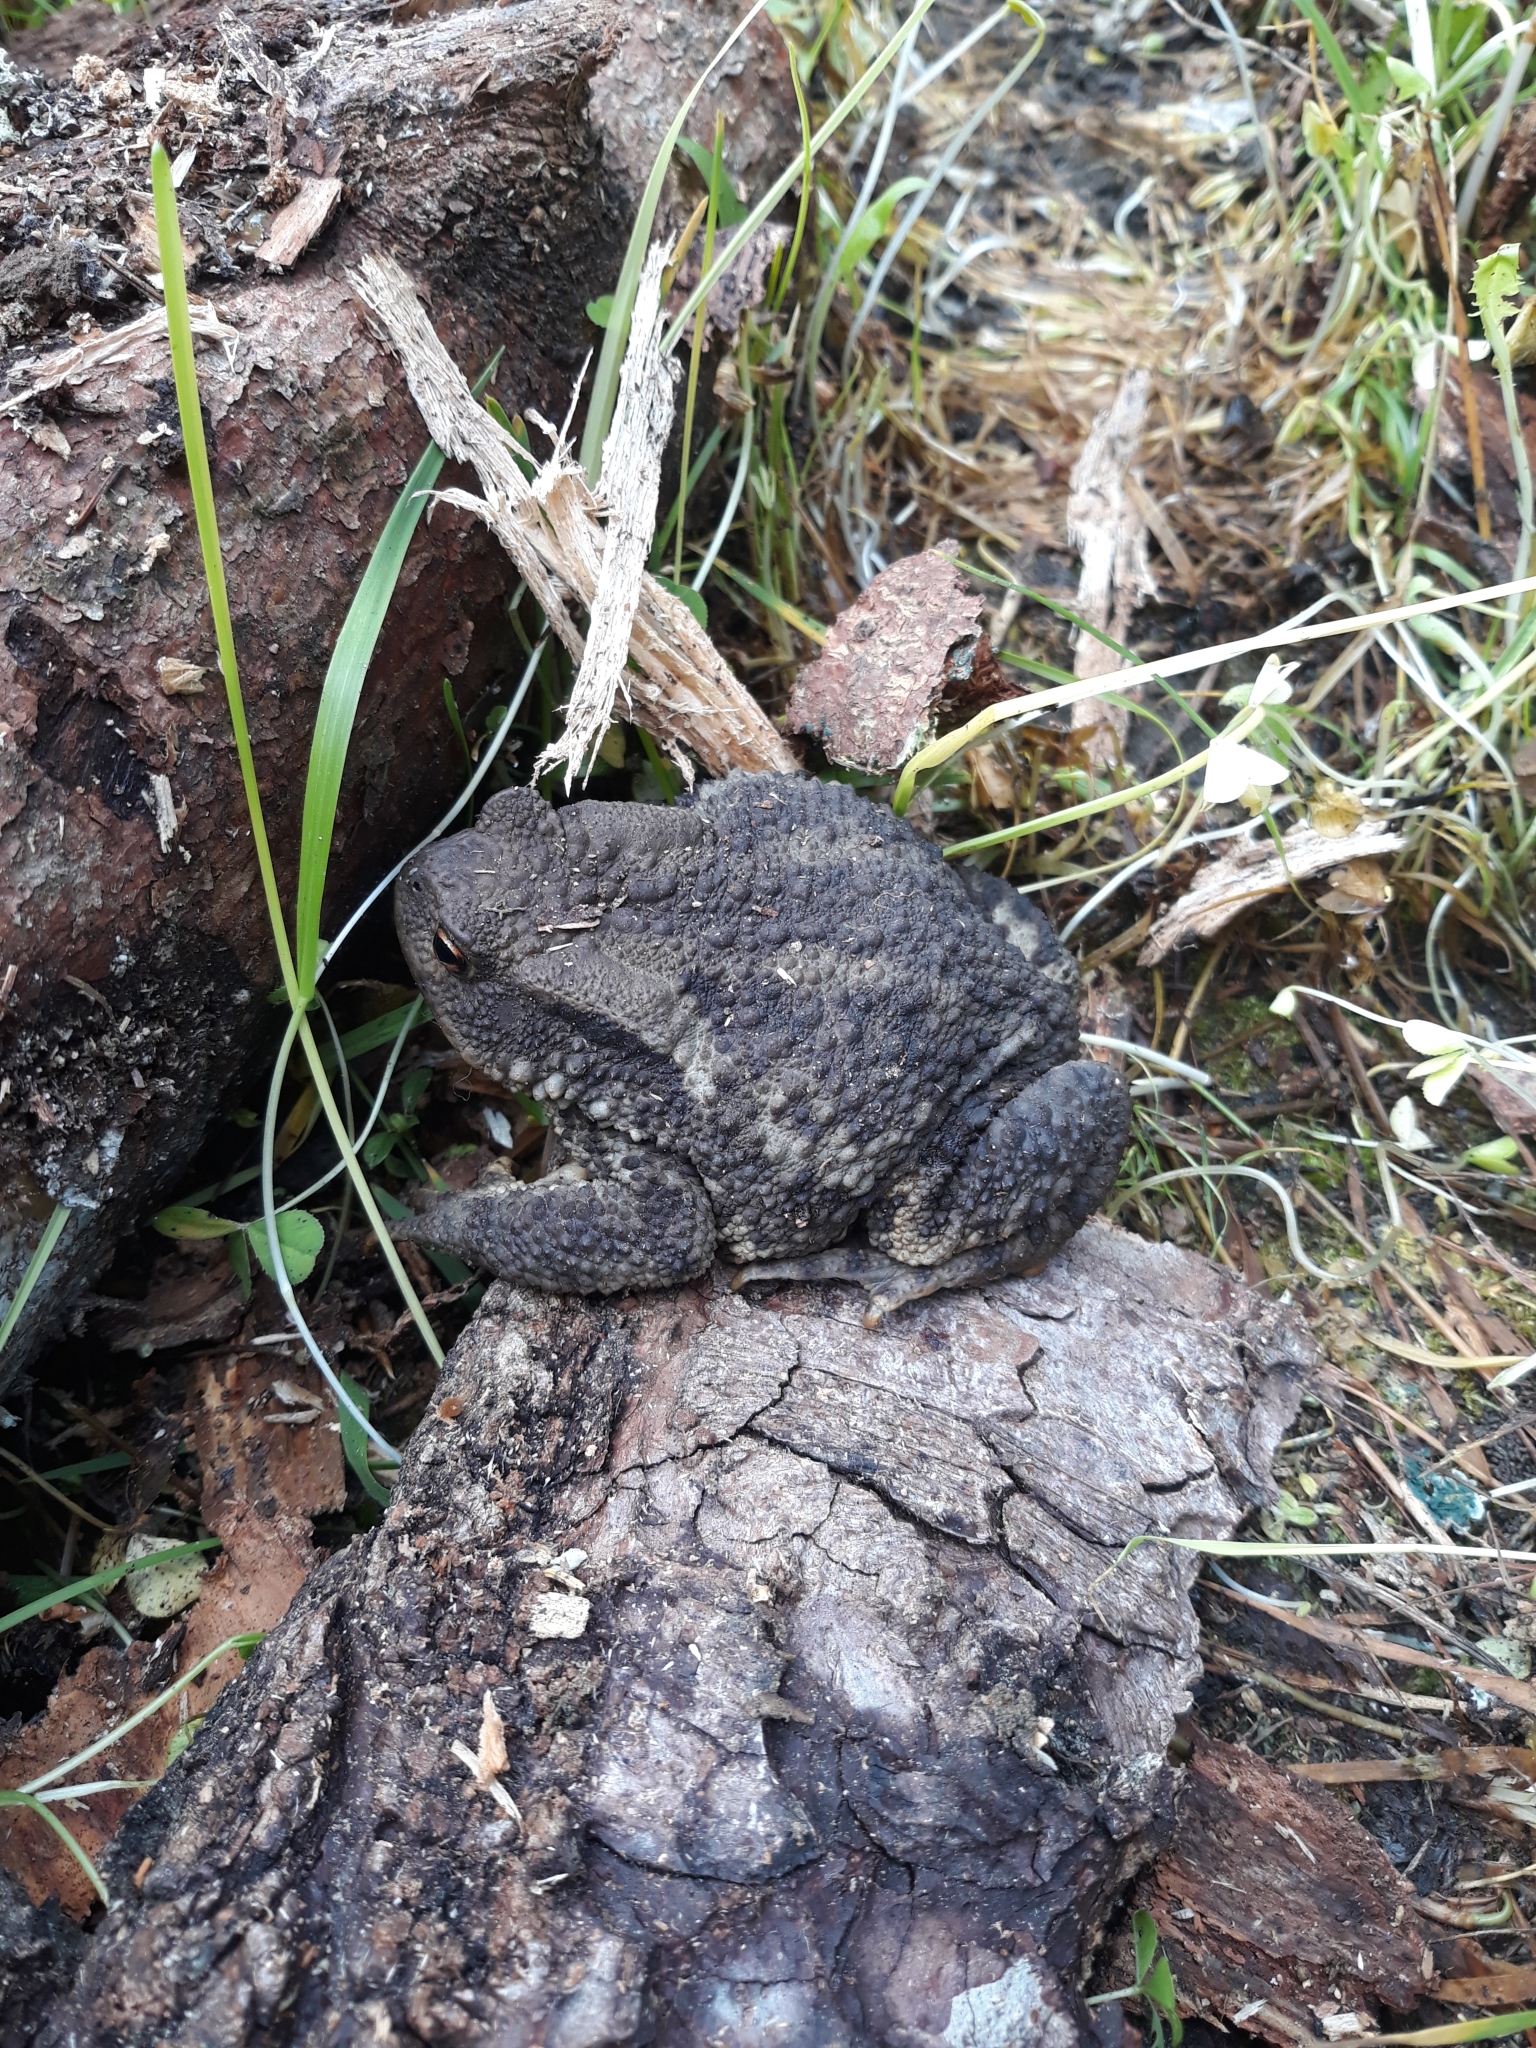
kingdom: Animalia
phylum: Chordata
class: Amphibia
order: Anura
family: Bufonidae
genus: Bufo
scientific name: Bufo bufo
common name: Common toad
